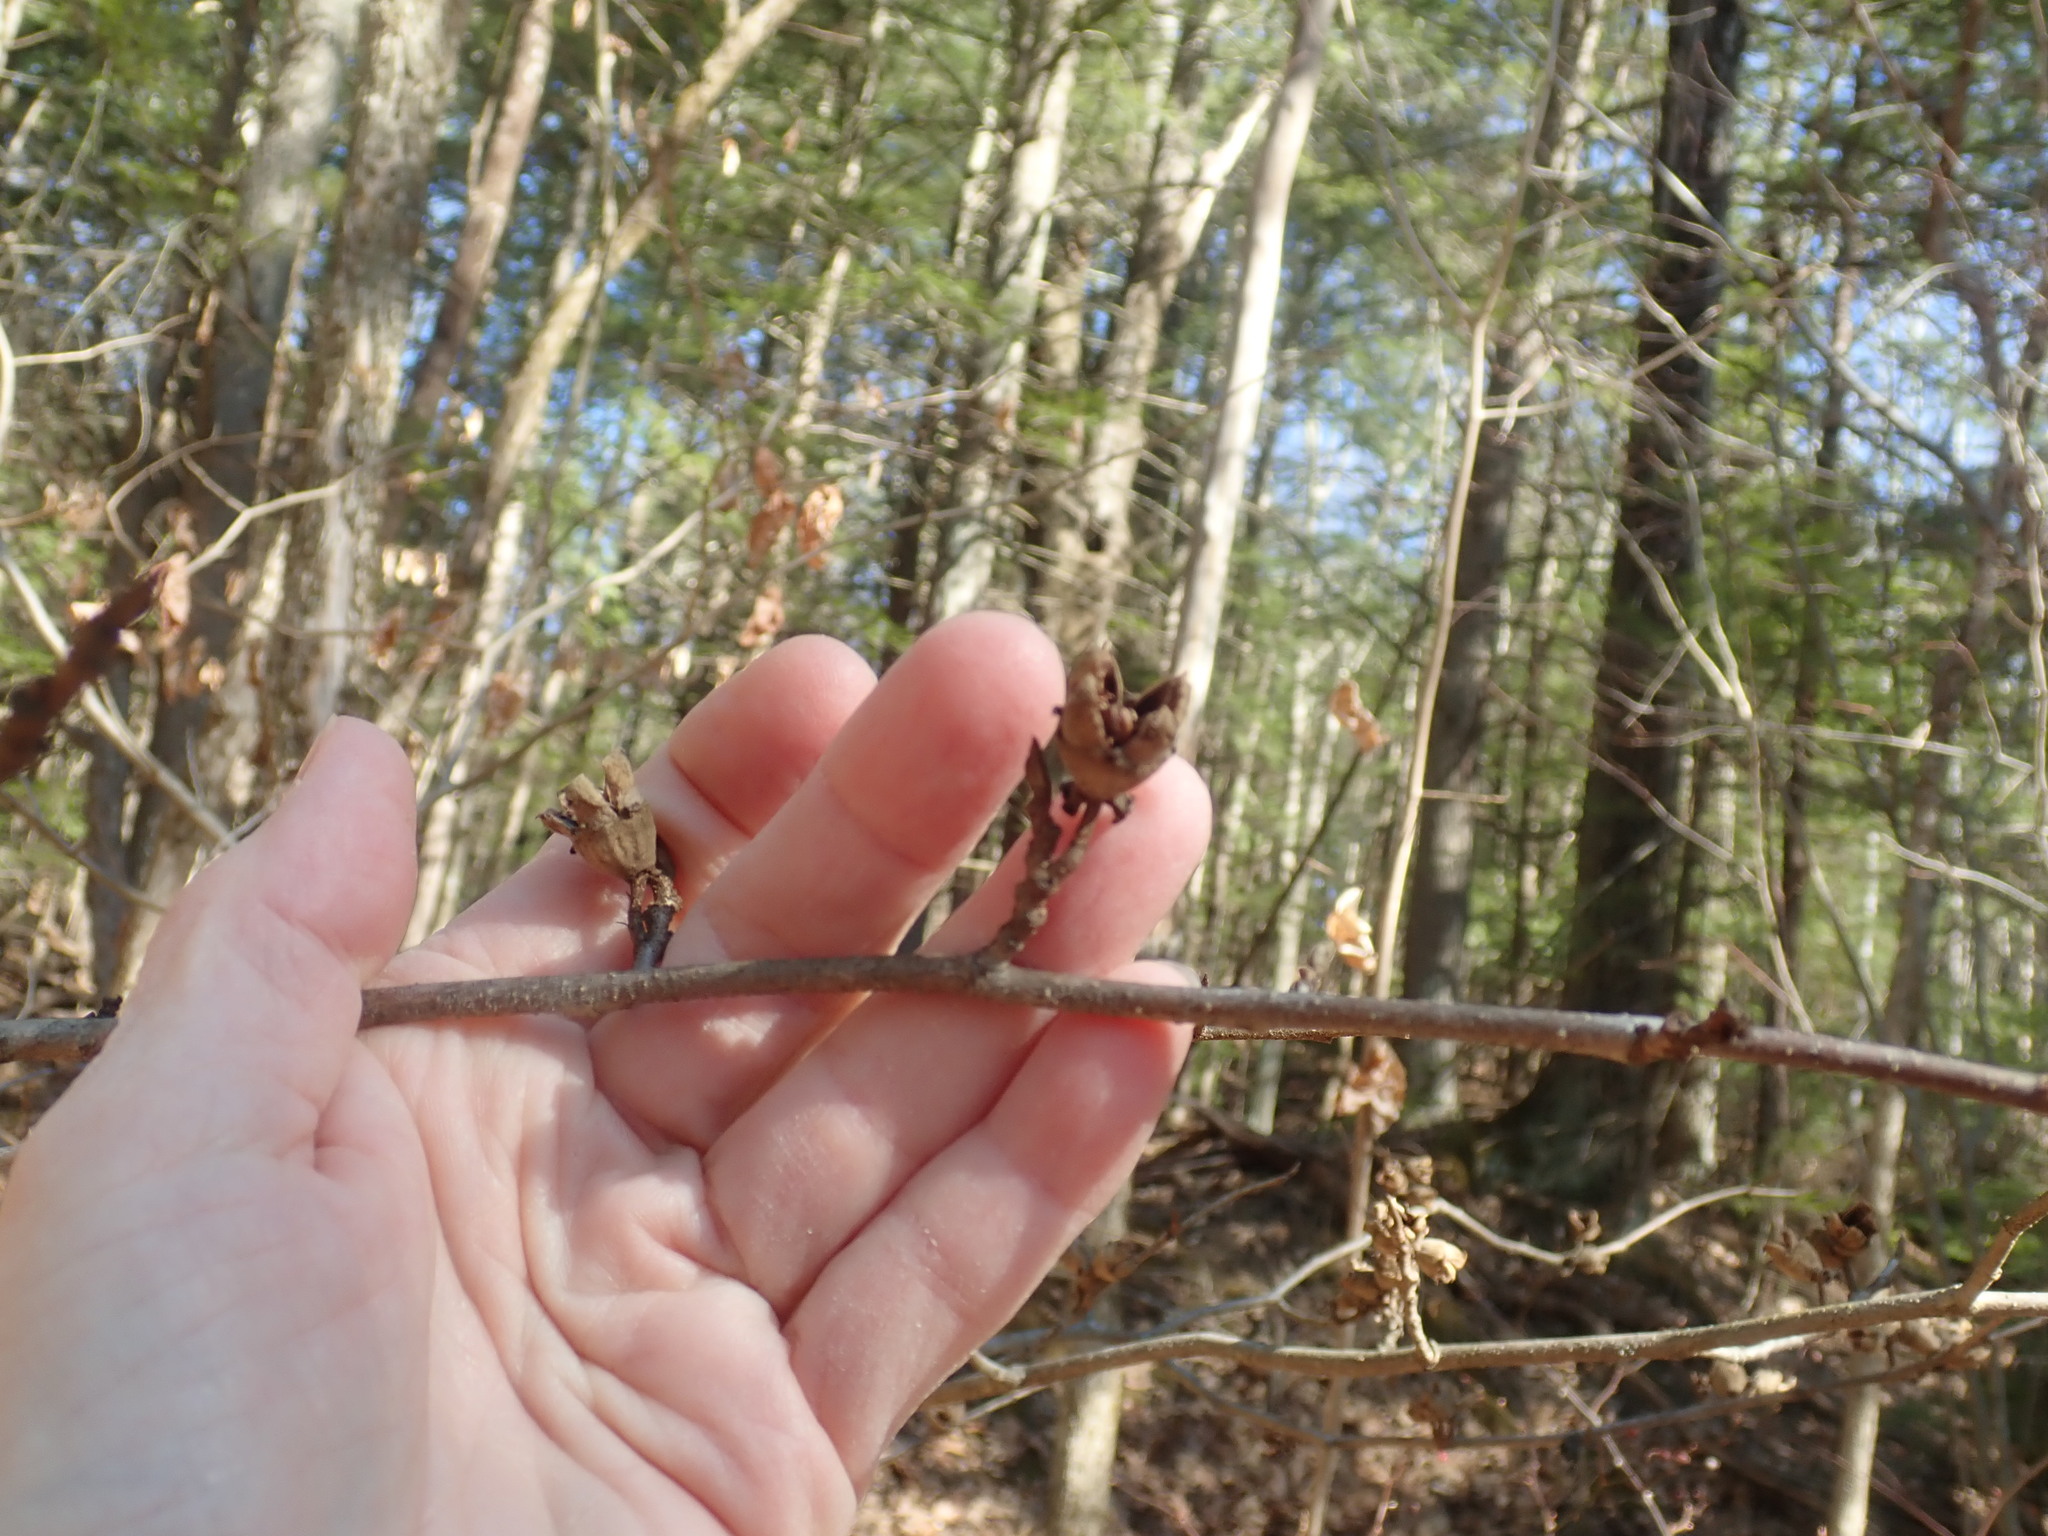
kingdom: Plantae
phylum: Tracheophyta
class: Magnoliopsida
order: Saxifragales
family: Hamamelidaceae
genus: Hamamelis
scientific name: Hamamelis virginiana
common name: Witch-hazel
